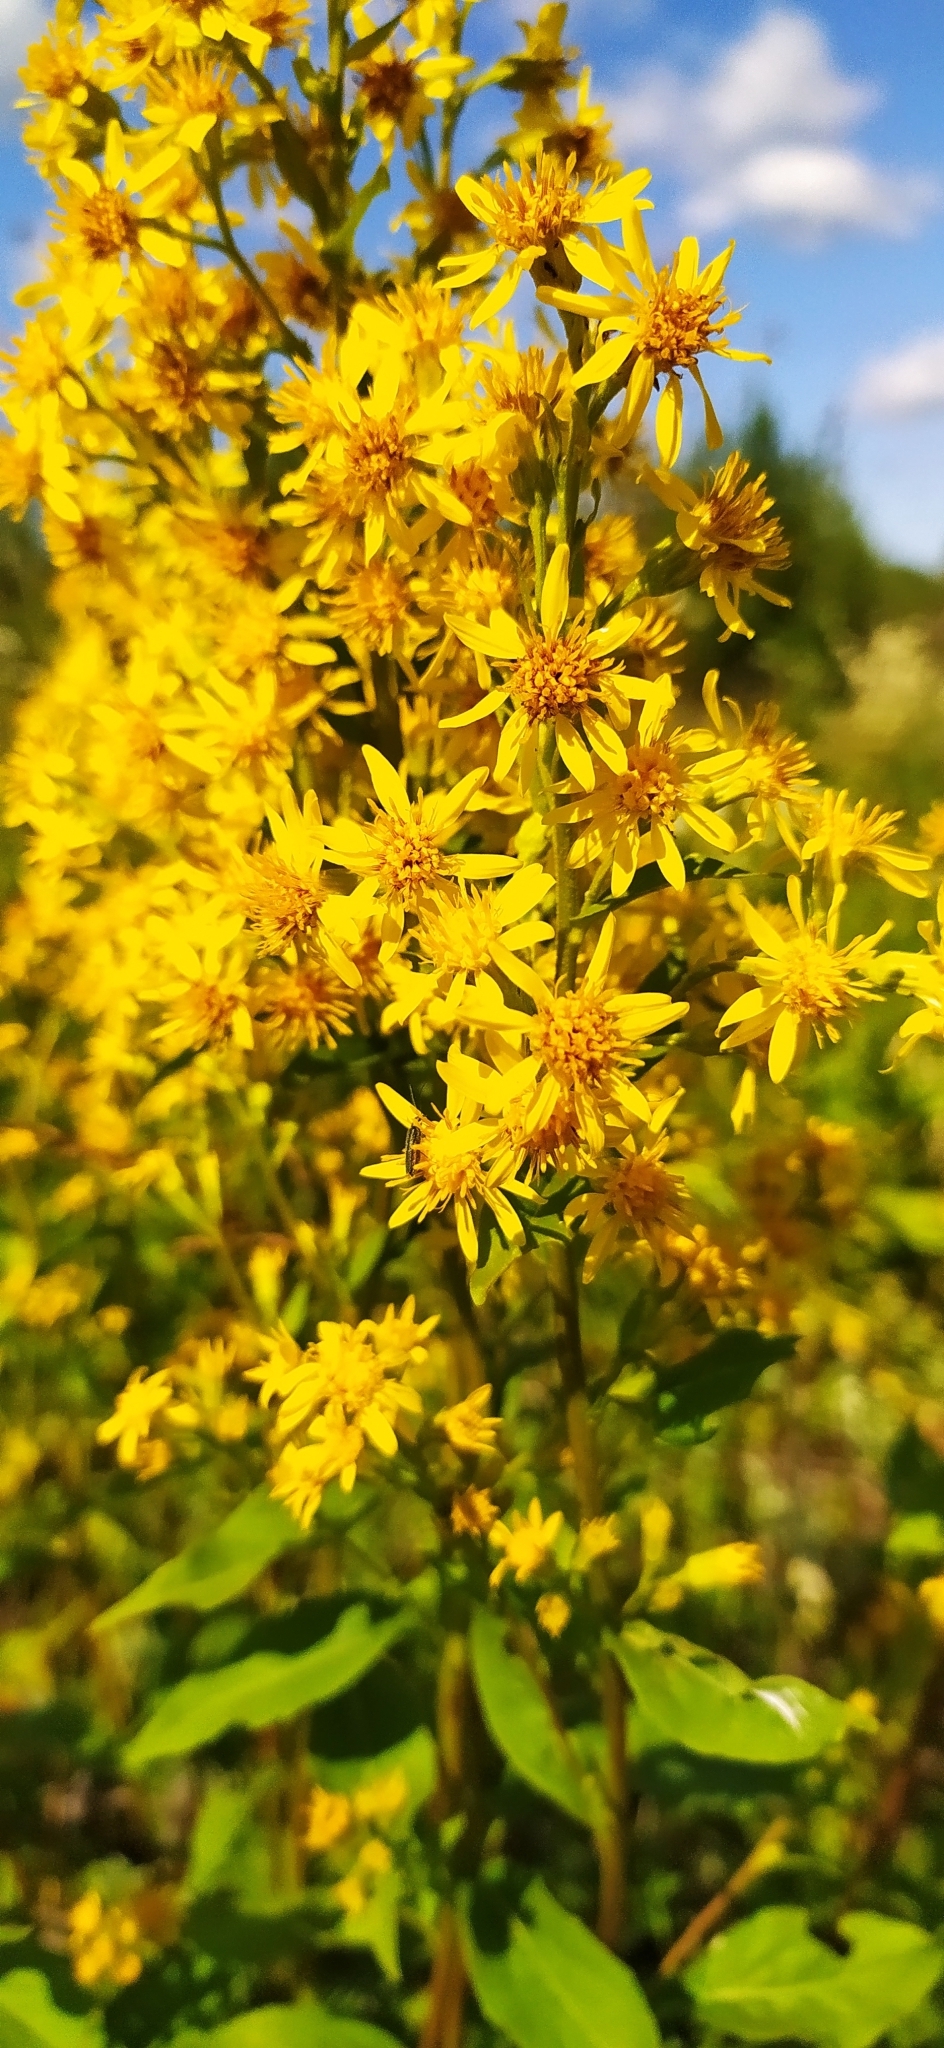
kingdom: Plantae
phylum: Tracheophyta
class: Magnoliopsida
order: Asterales
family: Asteraceae
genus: Solidago
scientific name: Solidago virgaurea
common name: Goldenrod
